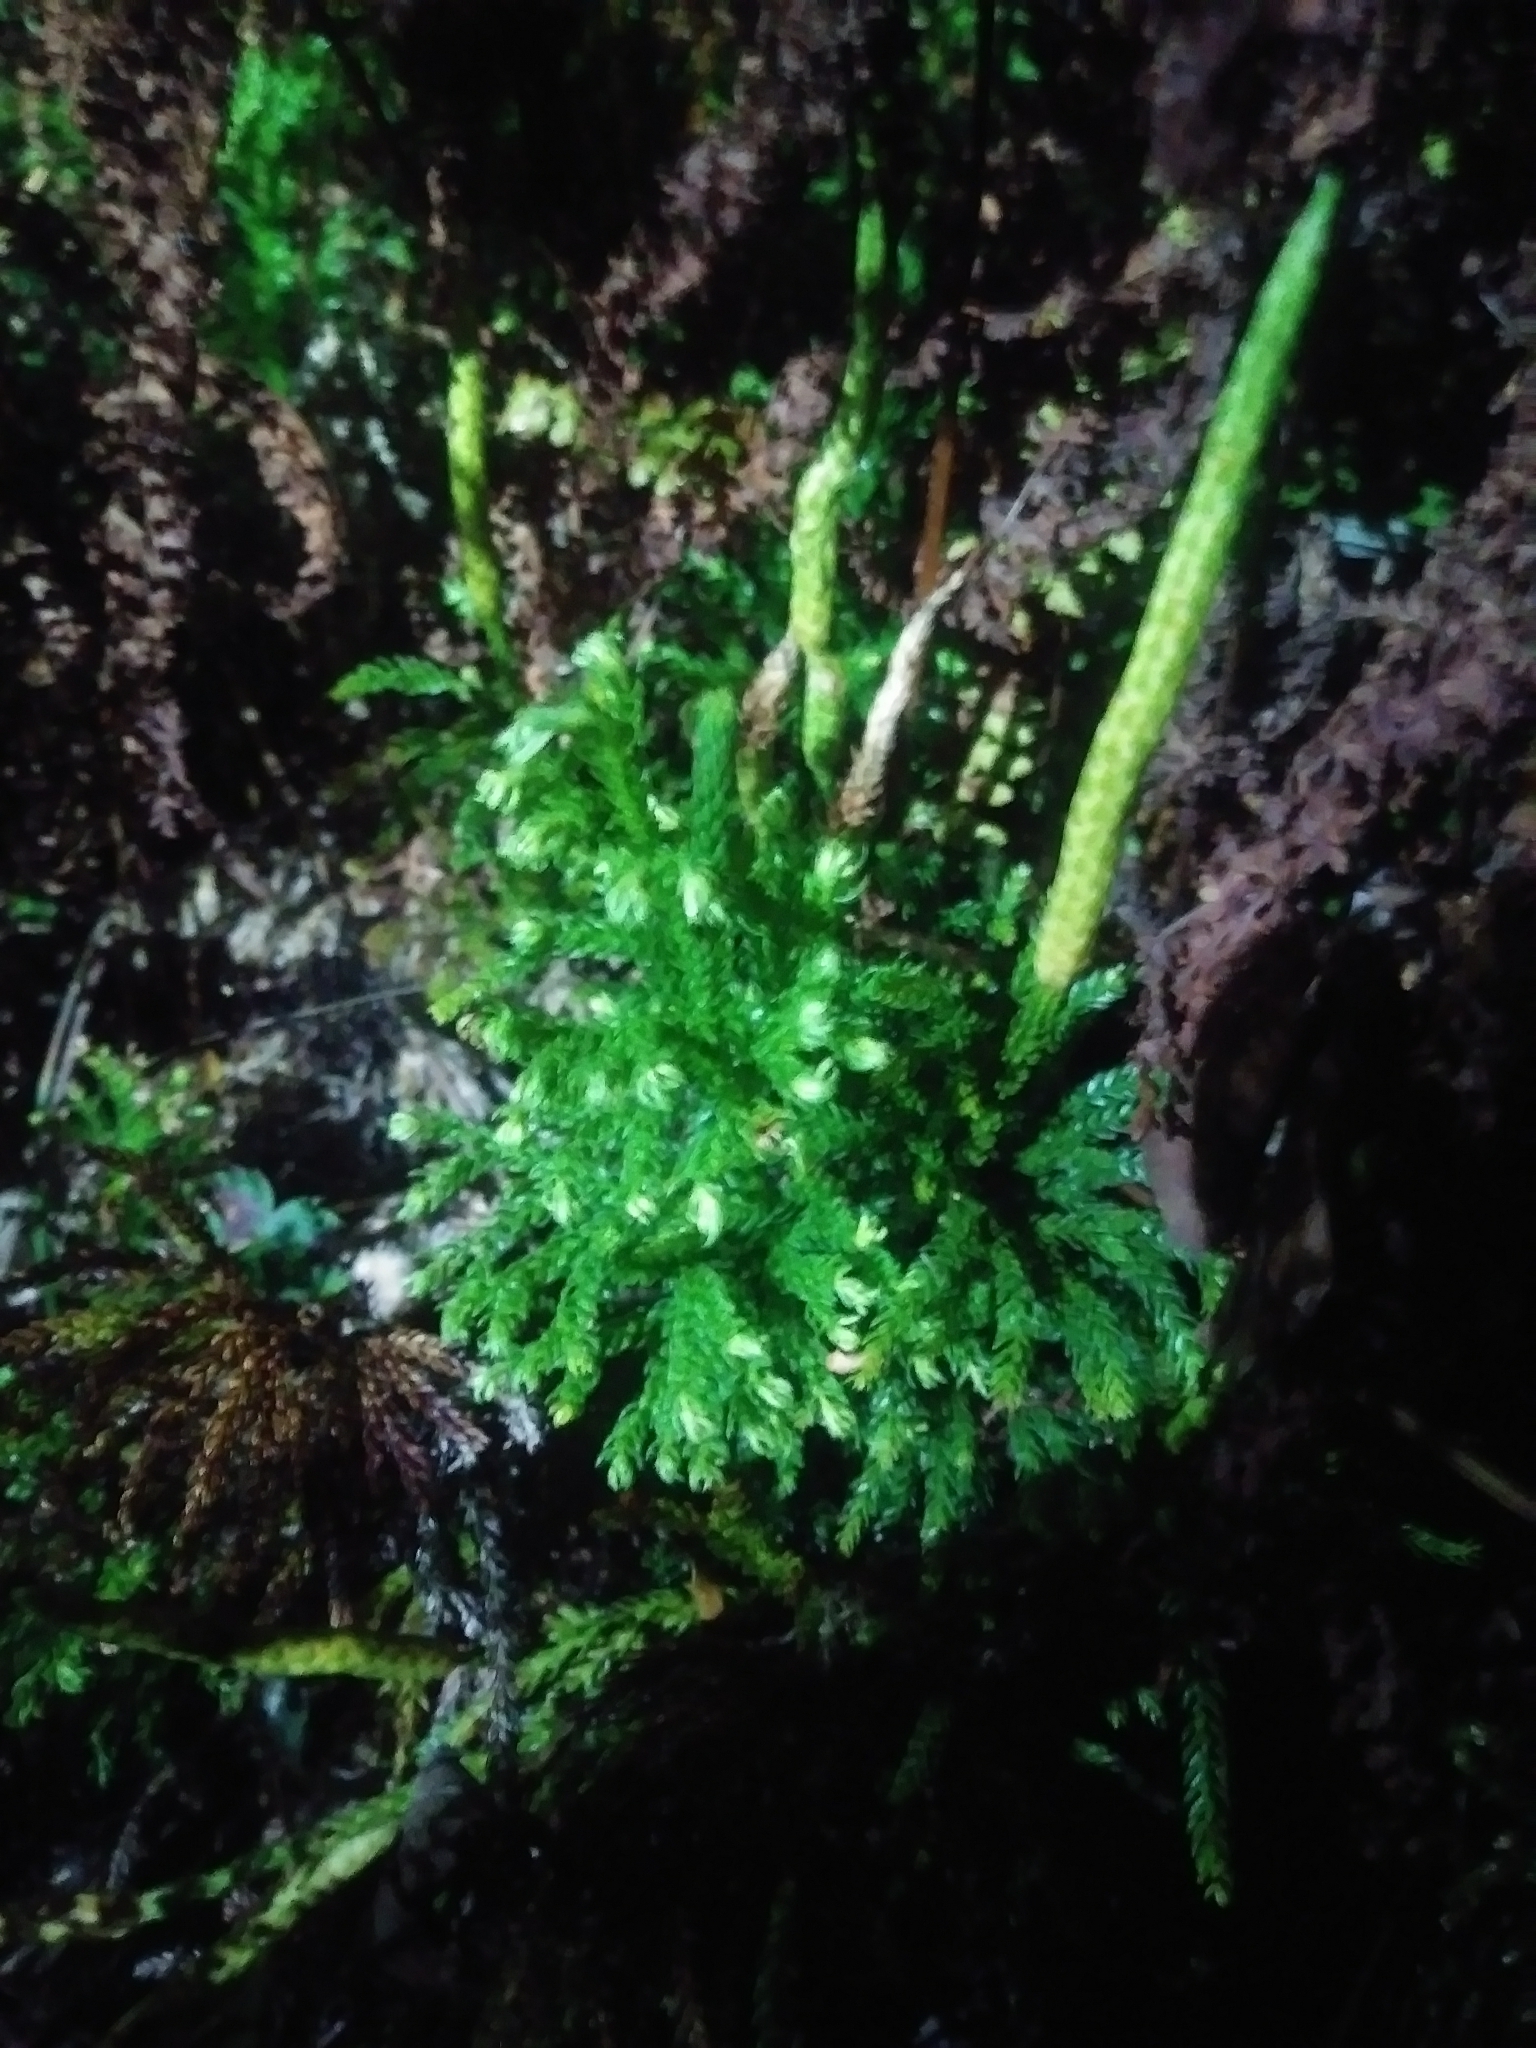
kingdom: Plantae
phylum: Tracheophyta
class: Lycopodiopsida
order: Lycopodiales
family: Lycopodiaceae
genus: Dendrolycopodium
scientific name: Dendrolycopodium hickeyi
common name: Hickey's clubmoss
